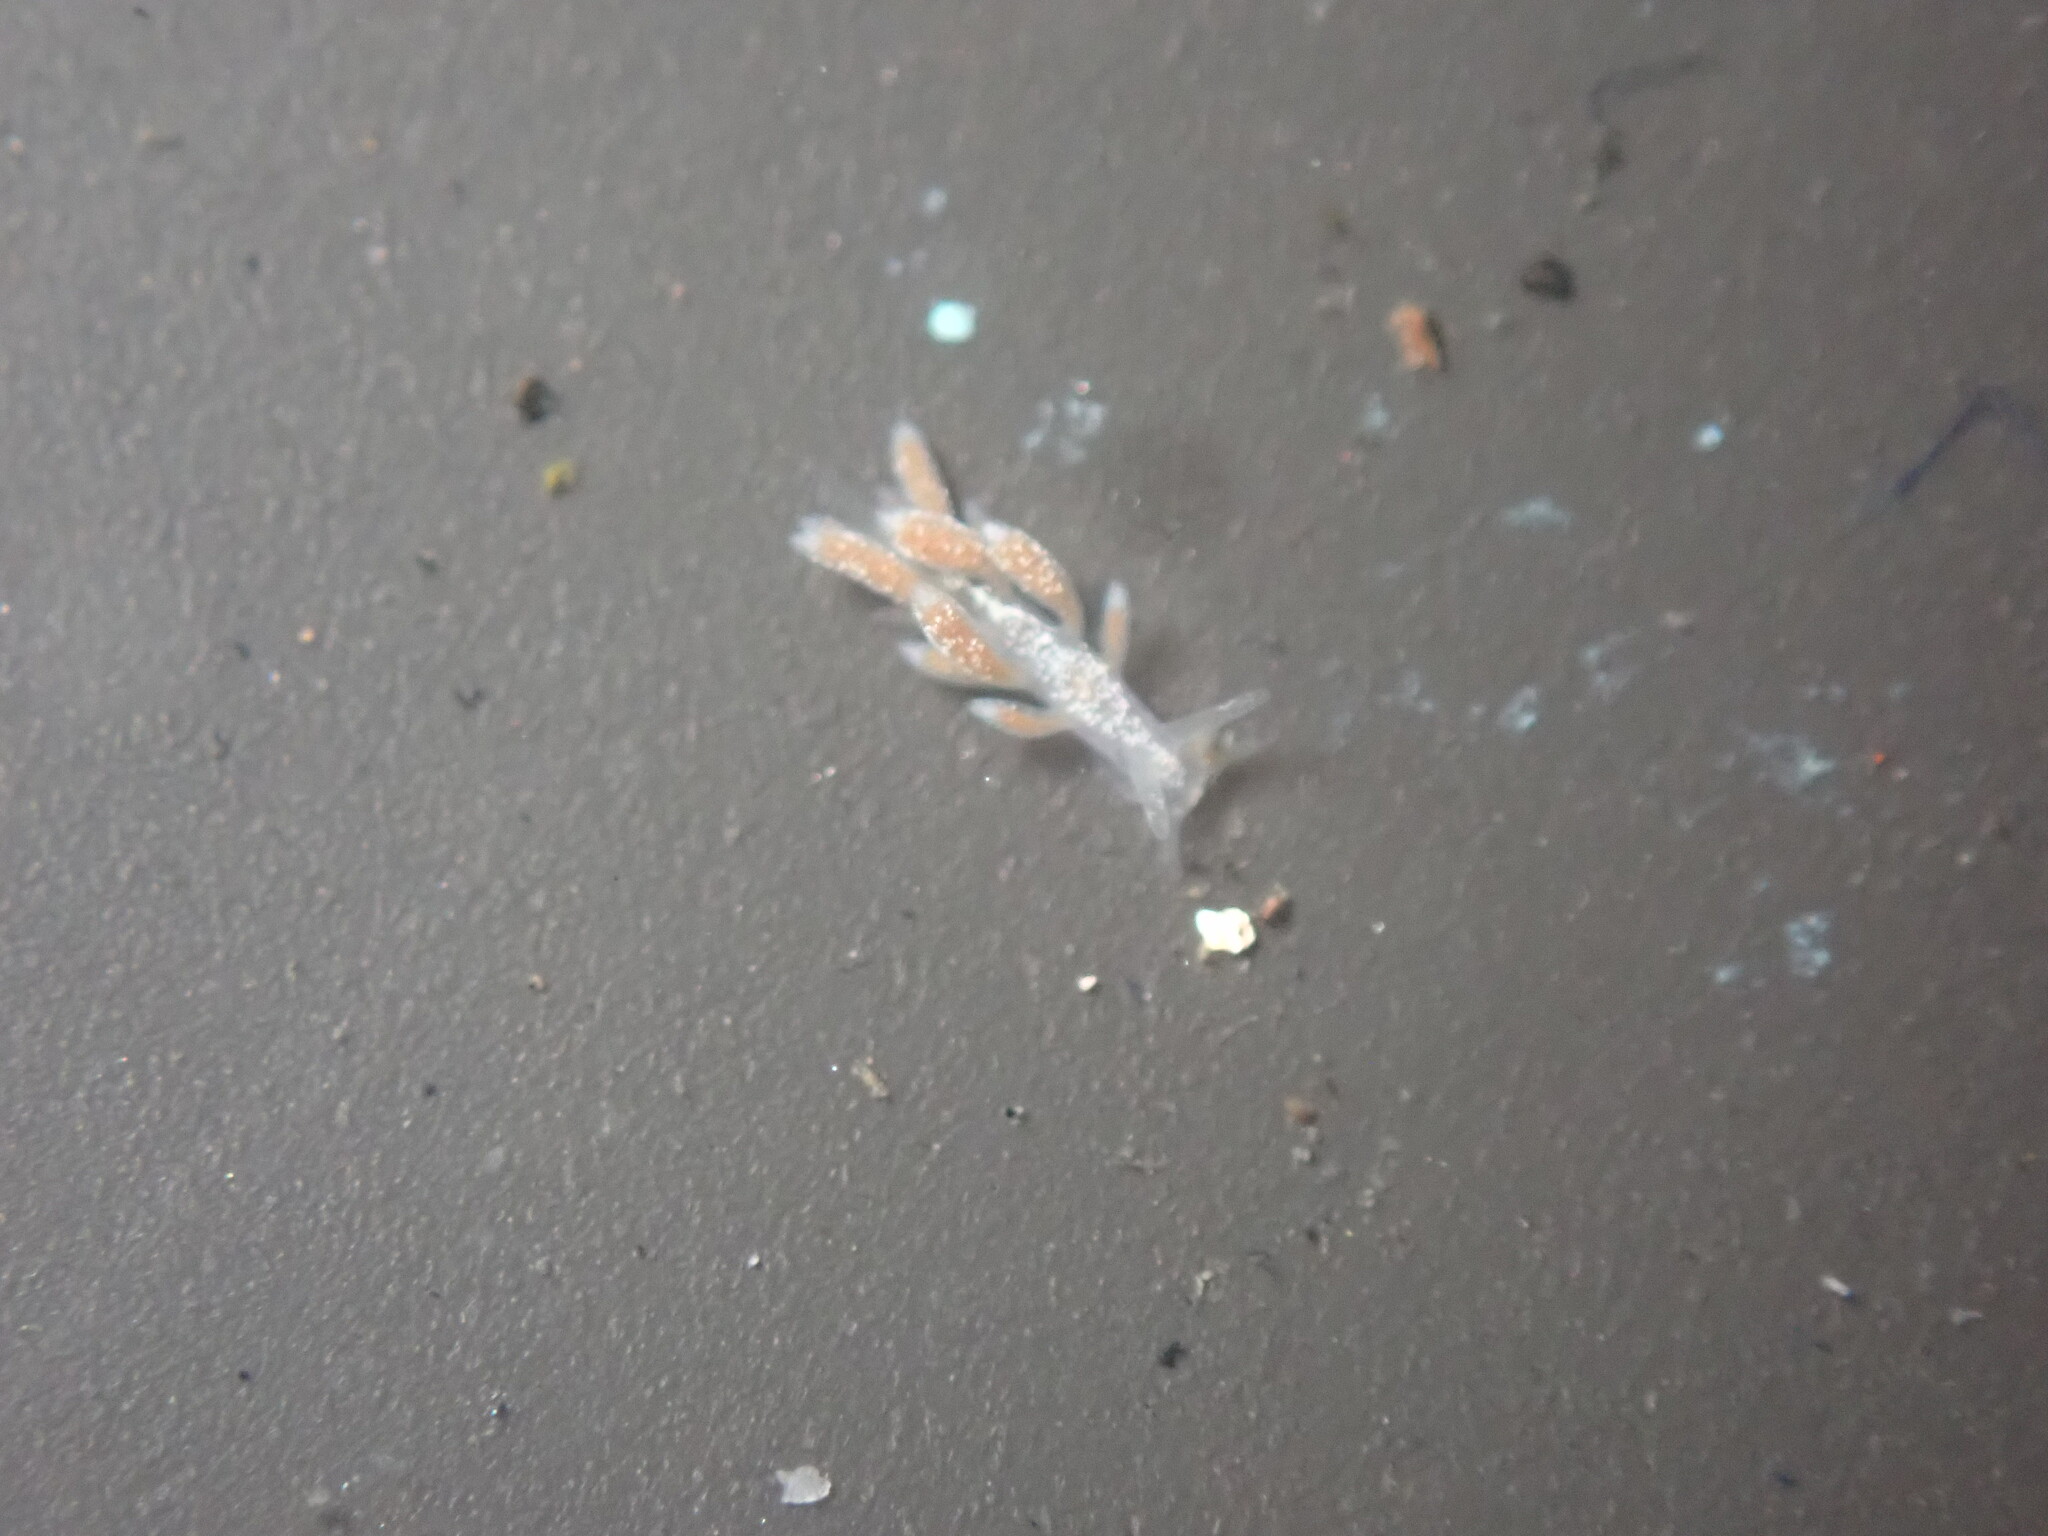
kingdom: Animalia
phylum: Mollusca
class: Gastropoda
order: Nudibranchia
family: Trinchesiidae
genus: Trinchesia
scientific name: Trinchesia albocrusta
